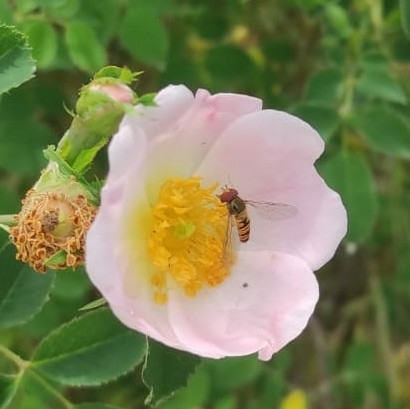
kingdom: Animalia
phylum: Arthropoda
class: Insecta
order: Diptera
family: Syrphidae
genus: Episyrphus
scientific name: Episyrphus balteatus
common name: Marmalade hoverfly
